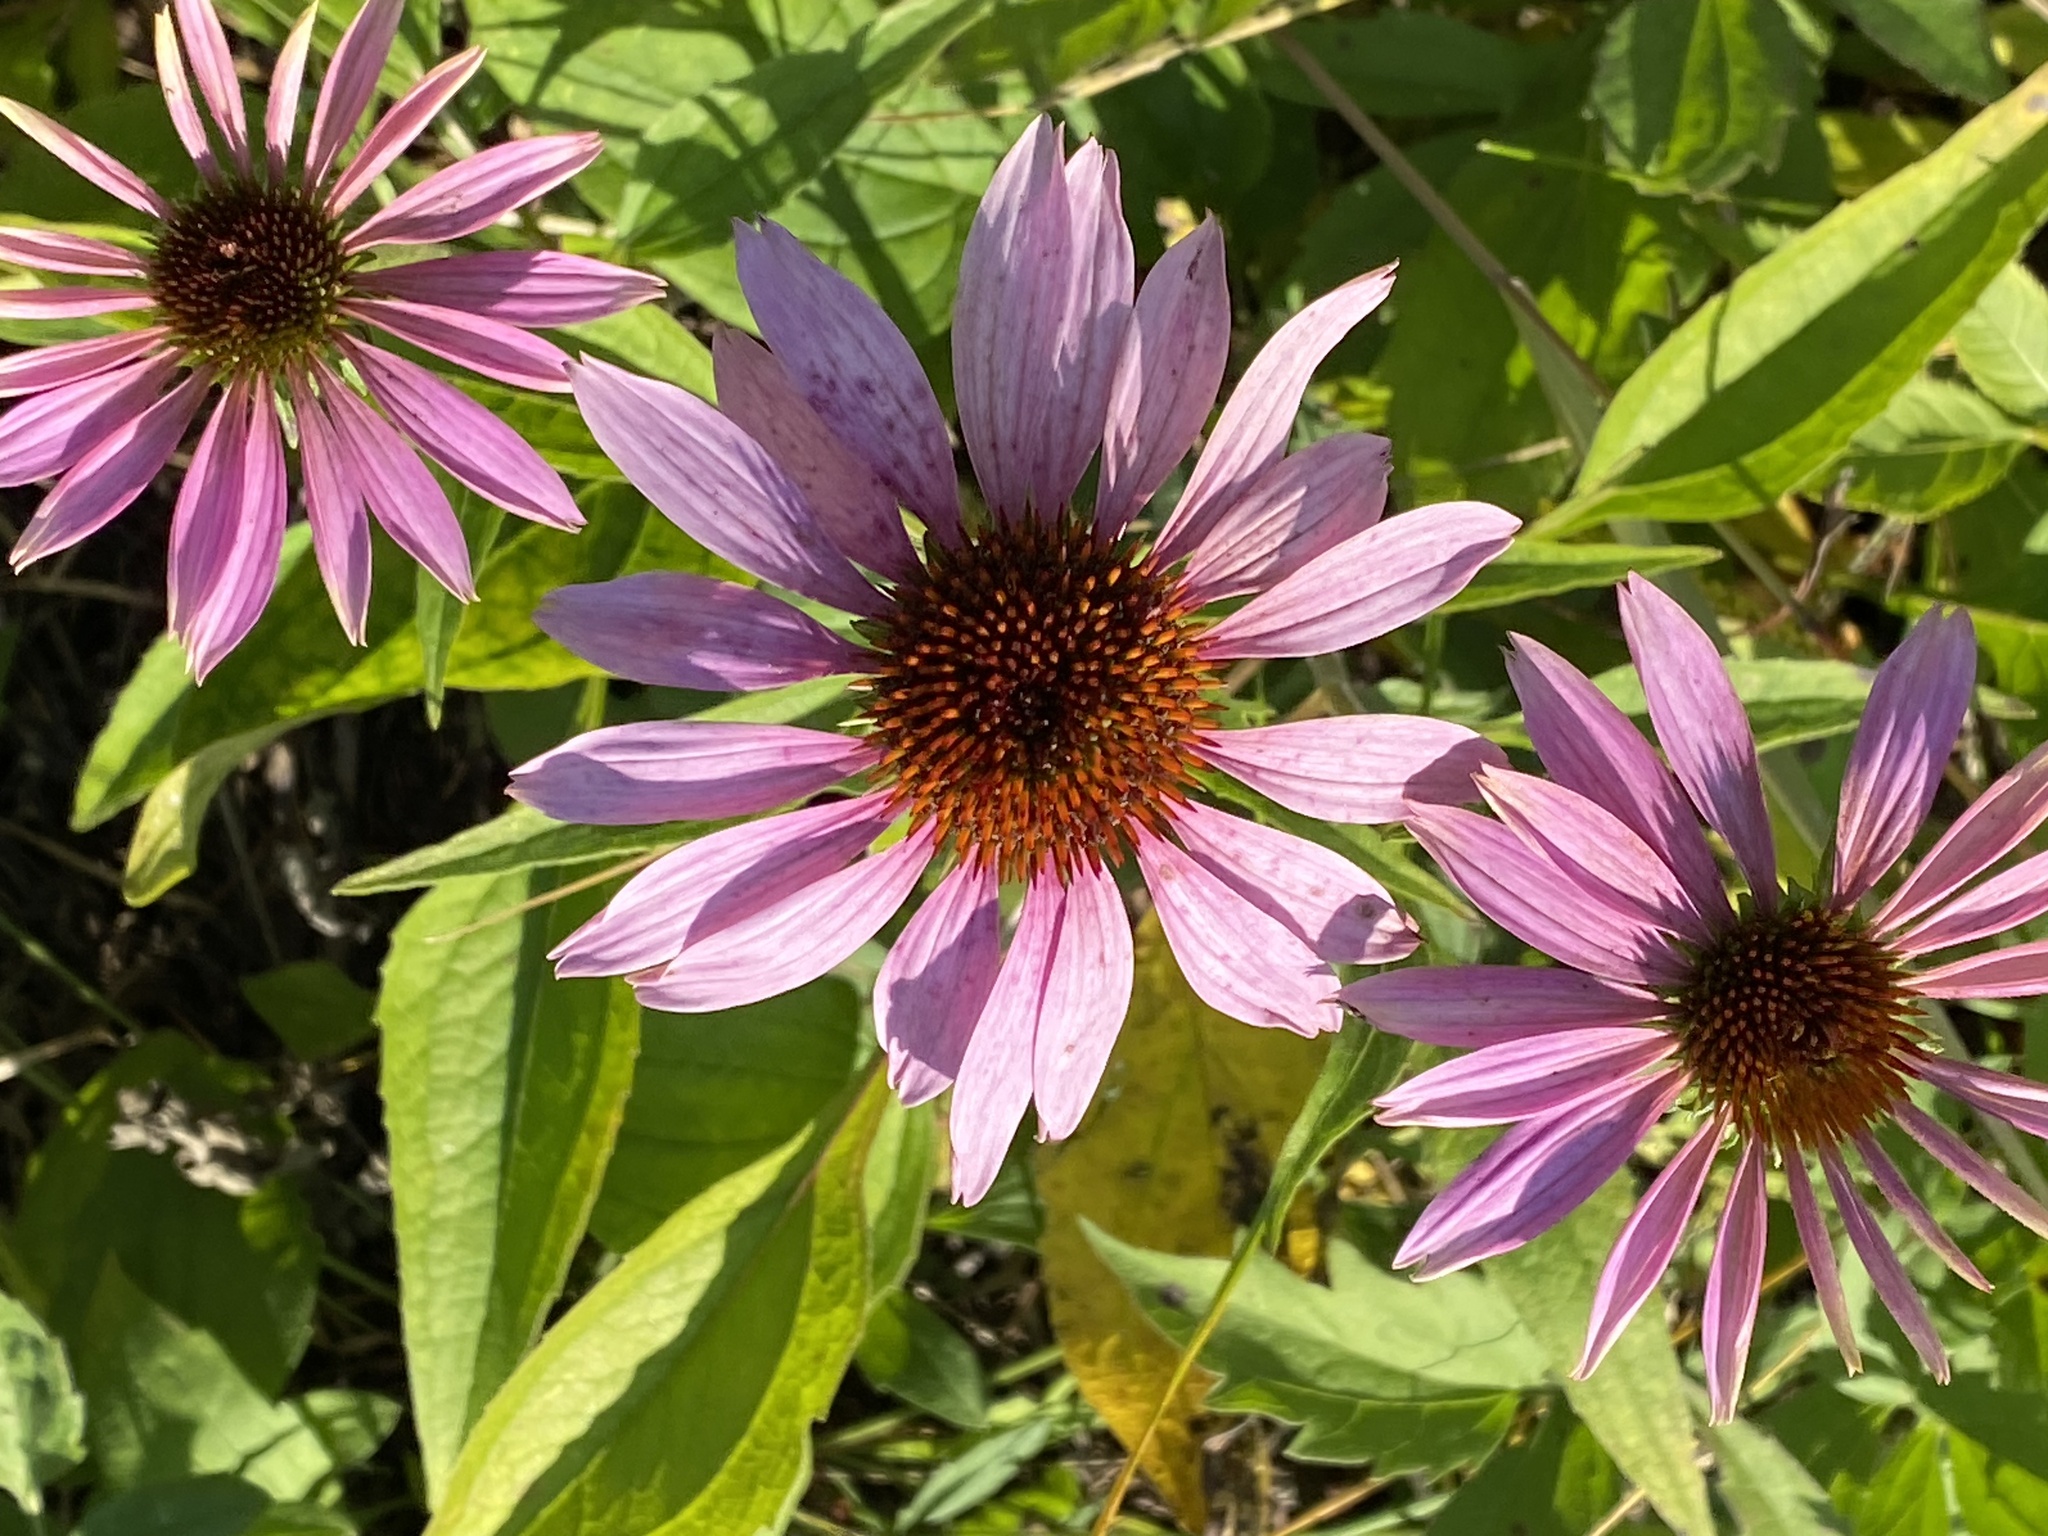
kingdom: Plantae
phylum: Tracheophyta
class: Magnoliopsida
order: Asterales
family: Asteraceae
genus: Echinacea
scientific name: Echinacea purpurea
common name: Broad-leaved purple coneflower
